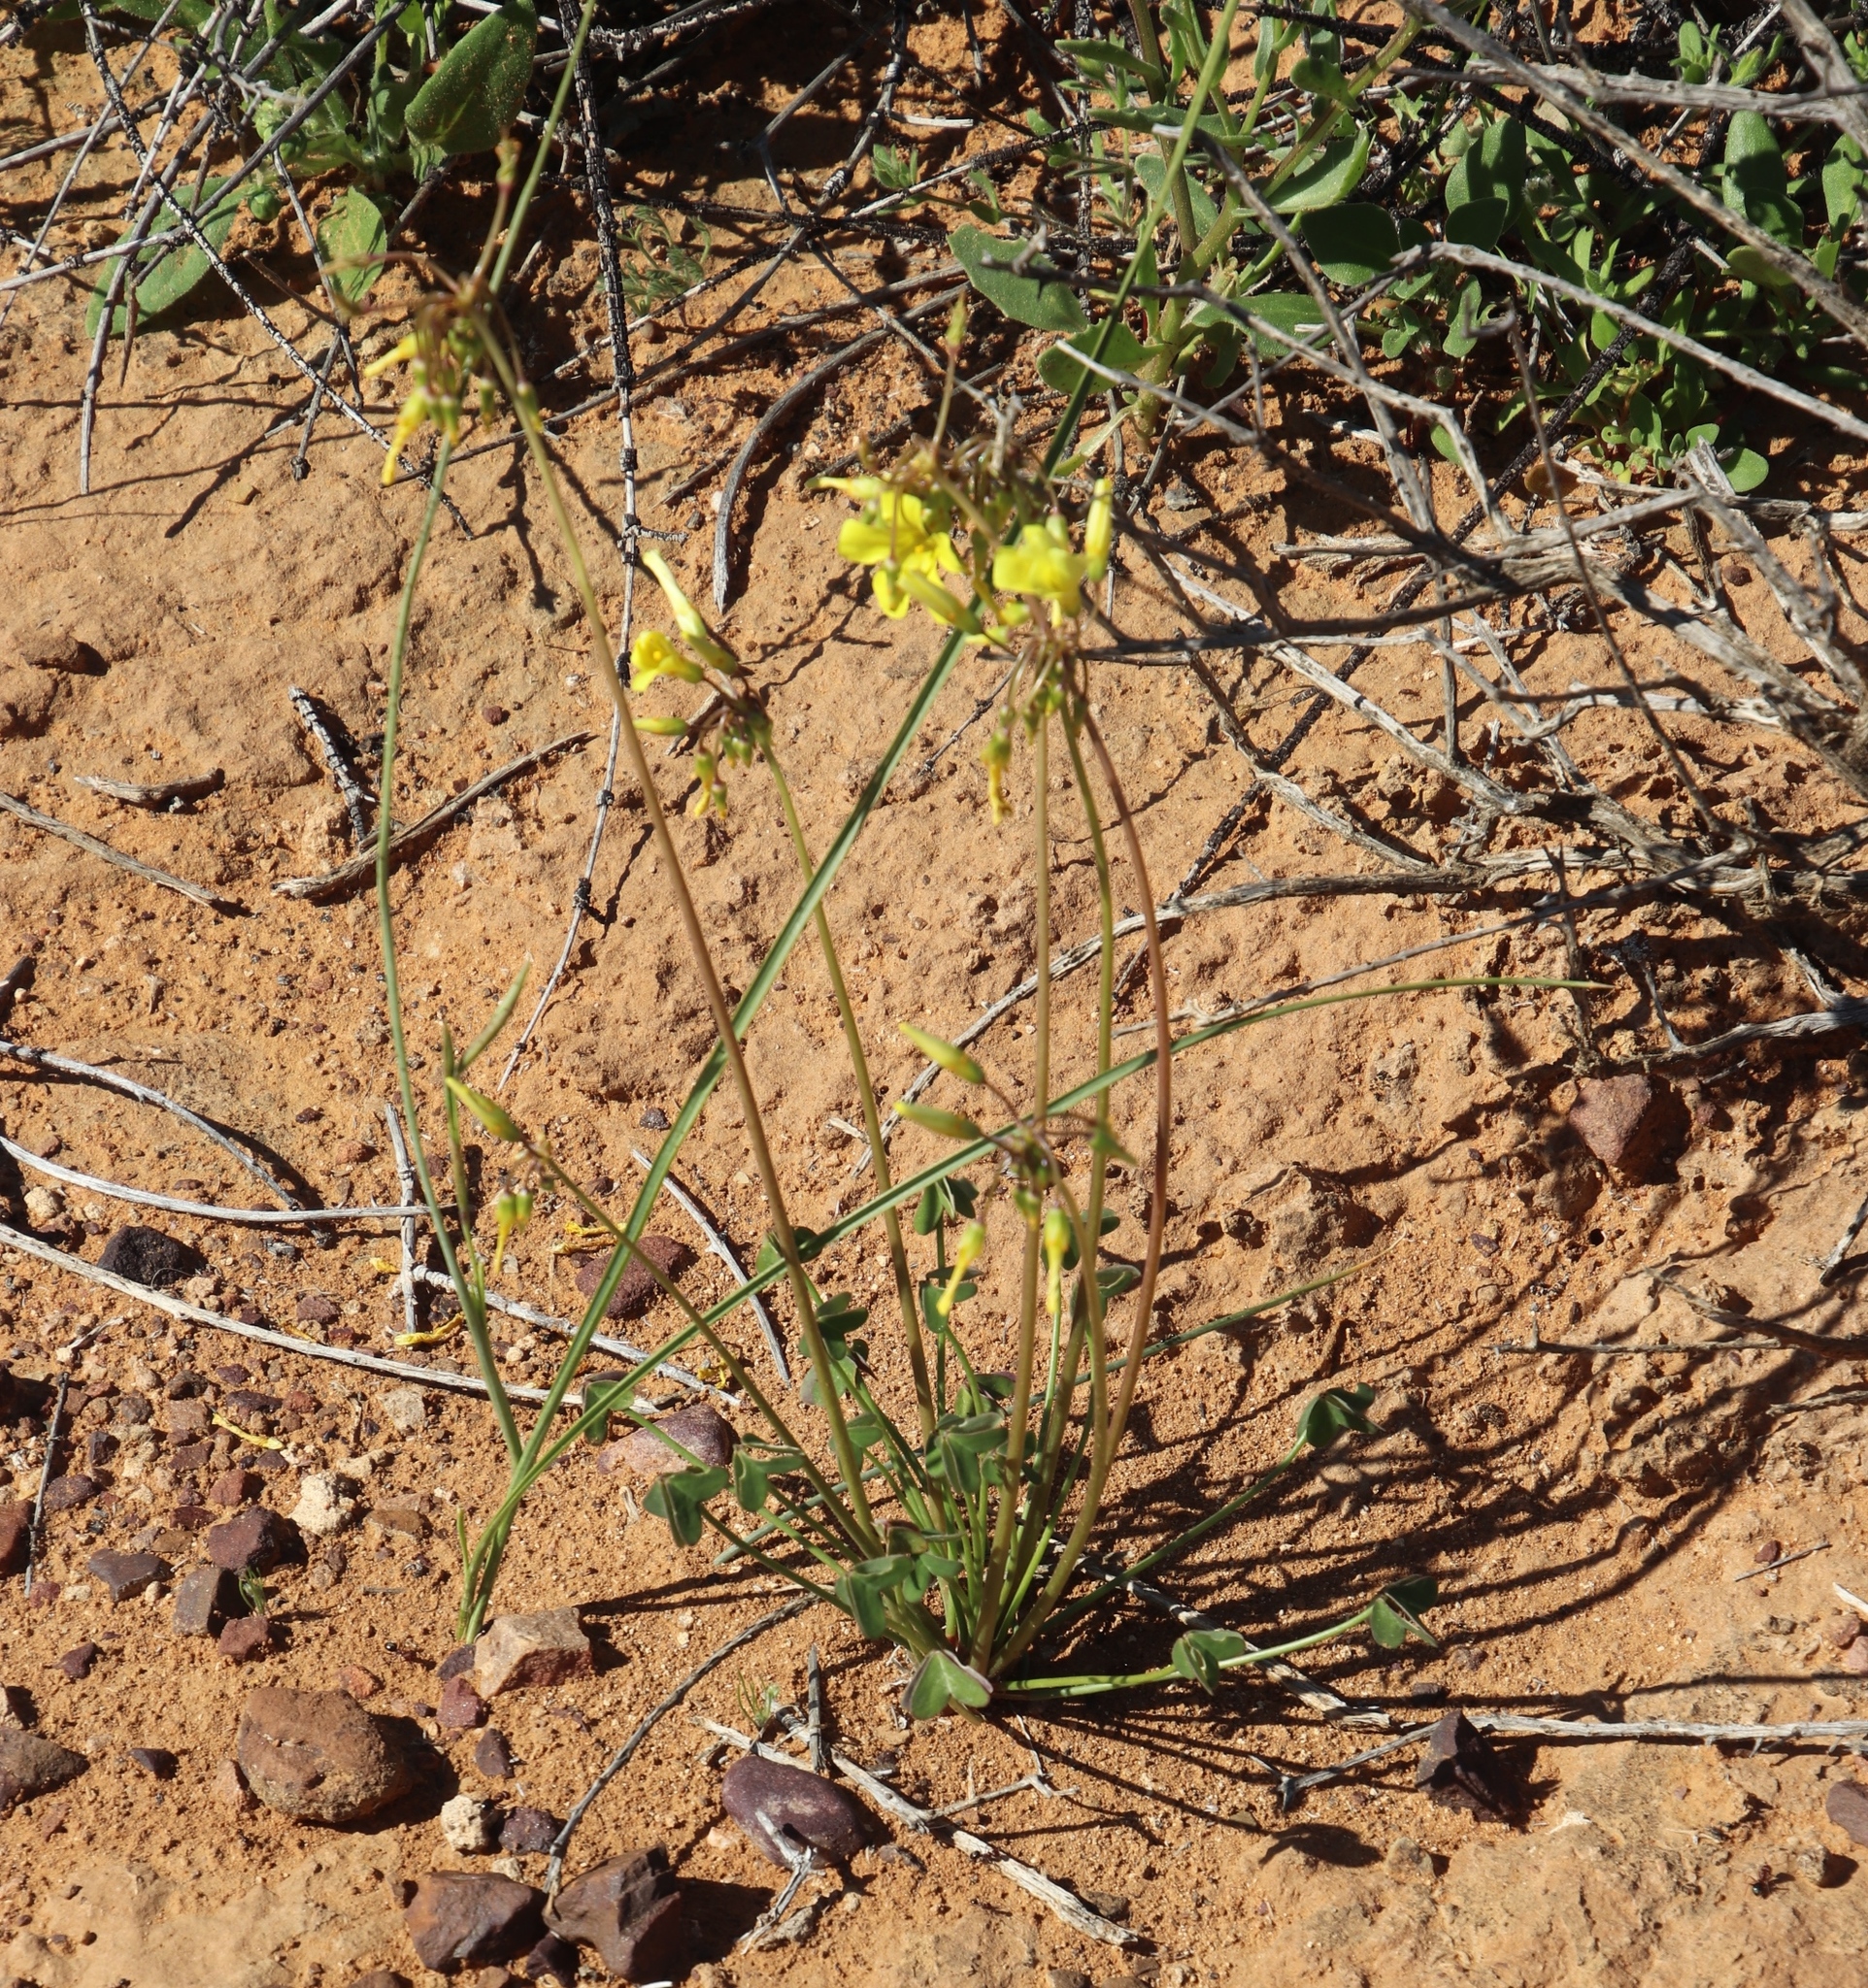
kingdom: Plantae
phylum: Tracheophyta
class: Magnoliopsida
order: Oxalidales
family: Oxalidaceae
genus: Oxalis
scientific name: Oxalis pes-caprae
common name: Bermuda-buttercup
